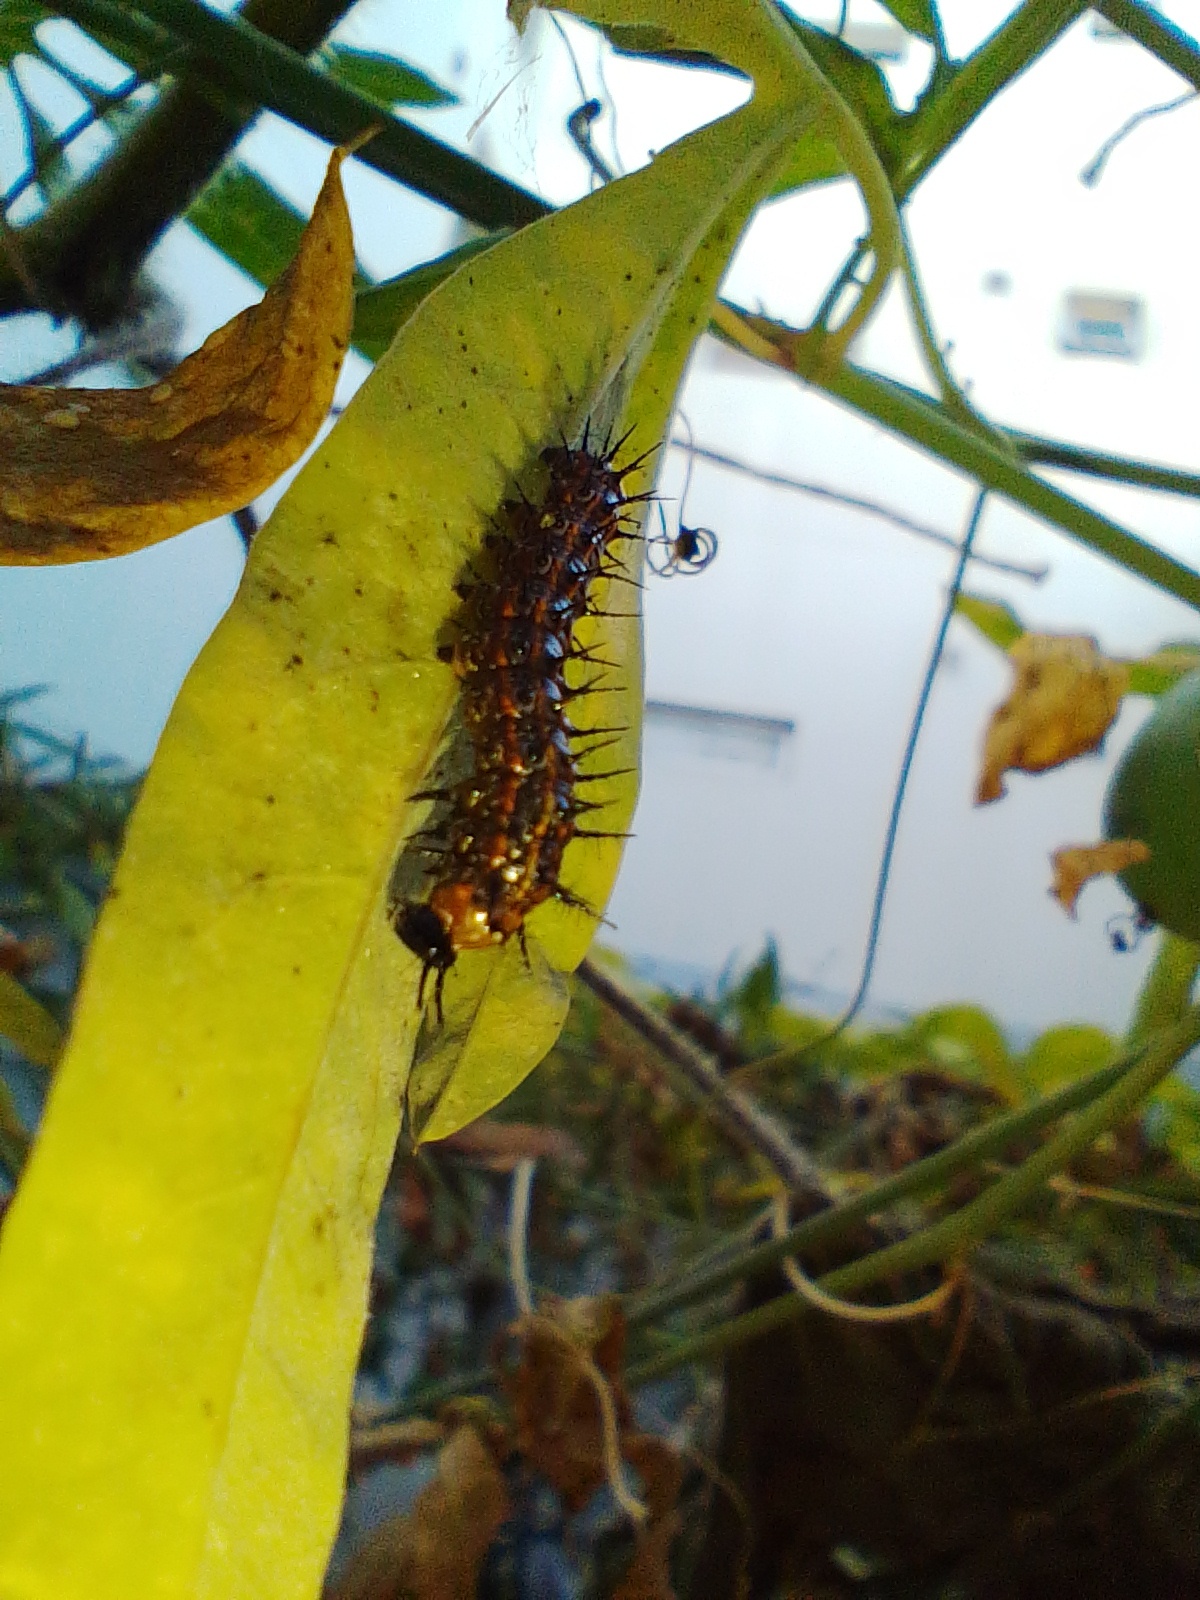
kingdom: Animalia
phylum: Arthropoda
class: Insecta
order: Lepidoptera
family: Nymphalidae
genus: Dione
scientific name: Dione vanillae
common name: Gulf fritillary
